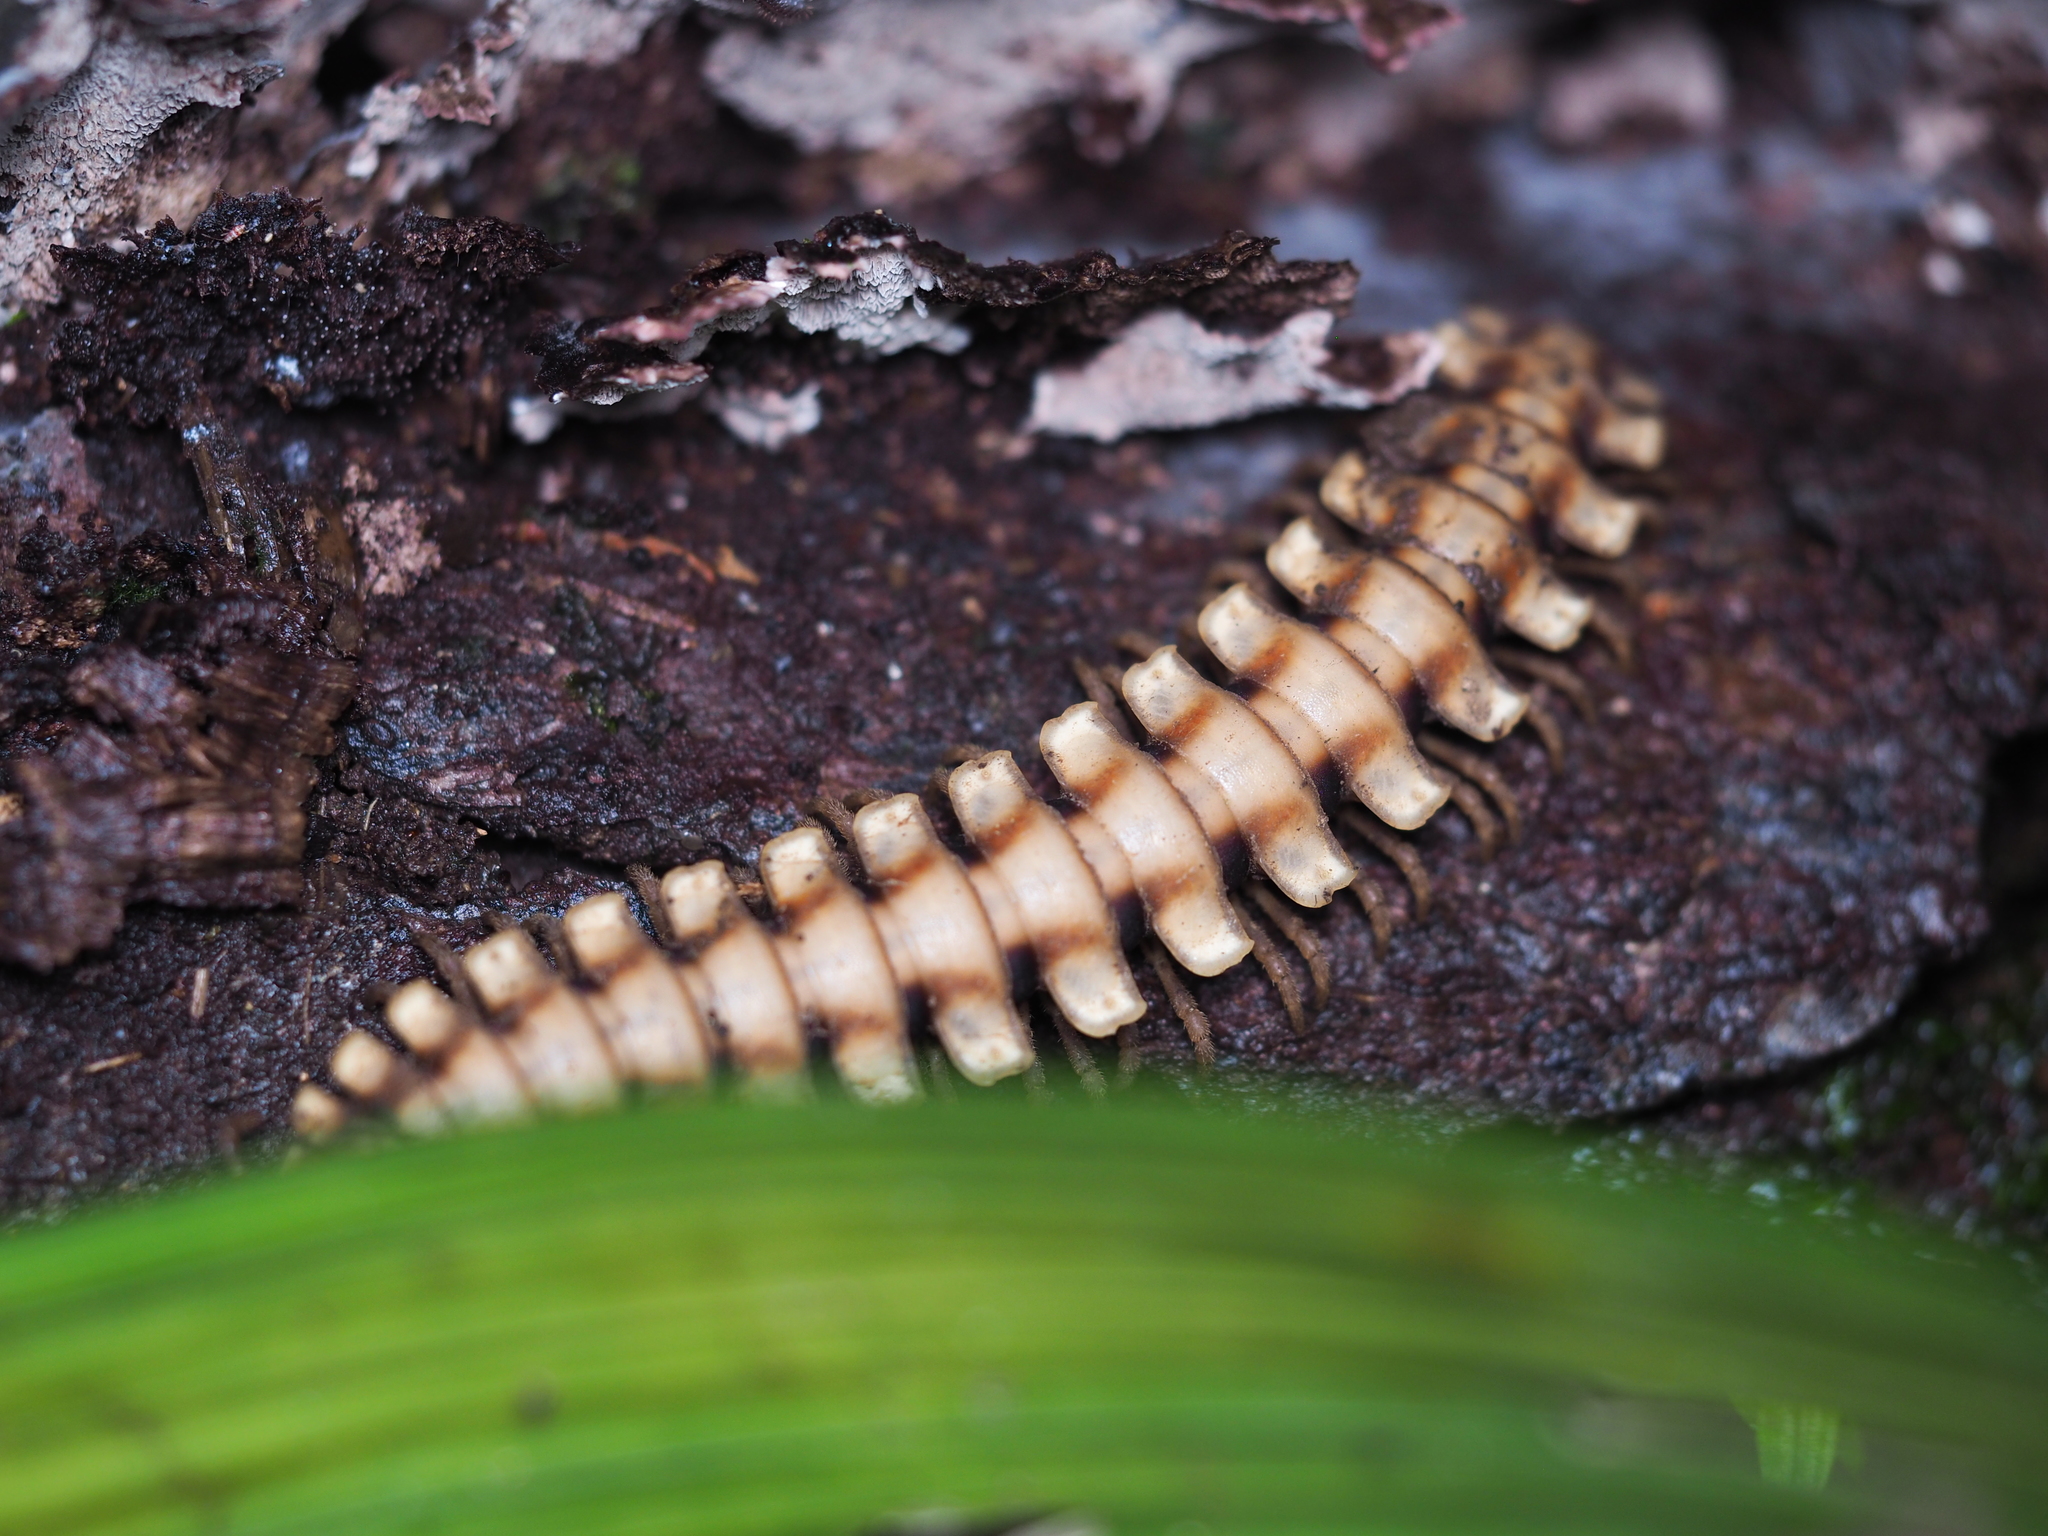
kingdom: Animalia
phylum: Arthropoda
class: Diplopoda
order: Polydesmida
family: Platyrhacidae
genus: Nyssodesmus
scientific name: Nyssodesmus python
